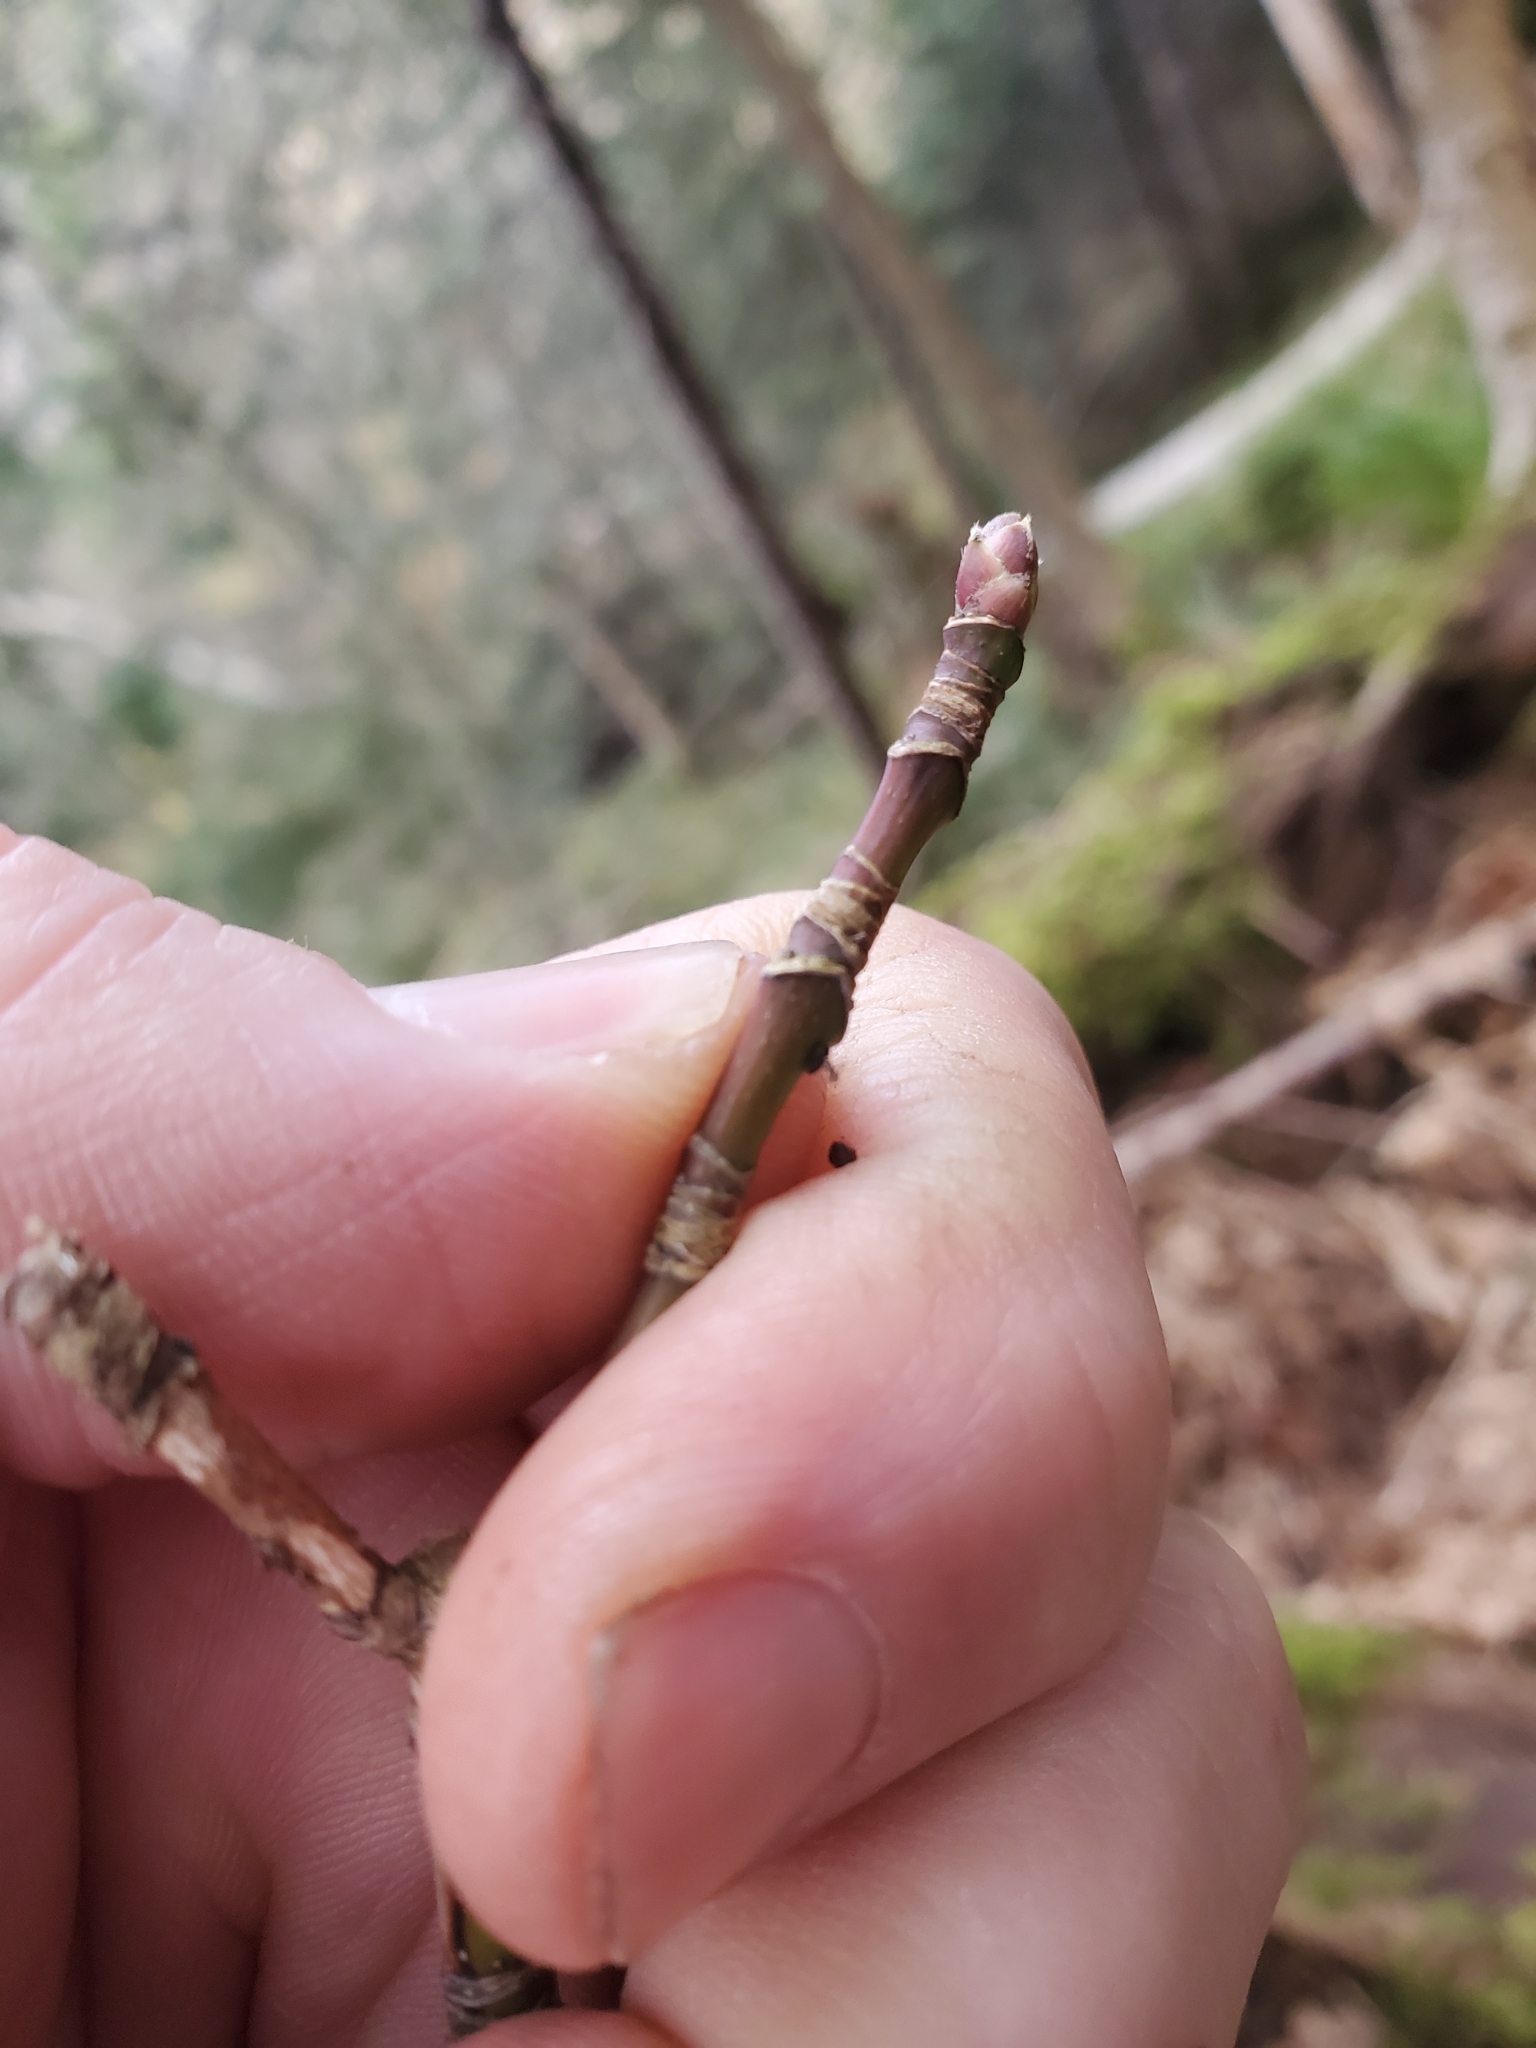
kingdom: Plantae
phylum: Tracheophyta
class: Magnoliopsida
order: Sapindales
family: Sapindaceae
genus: Acer
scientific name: Acer macrophyllum
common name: Oregon maple
